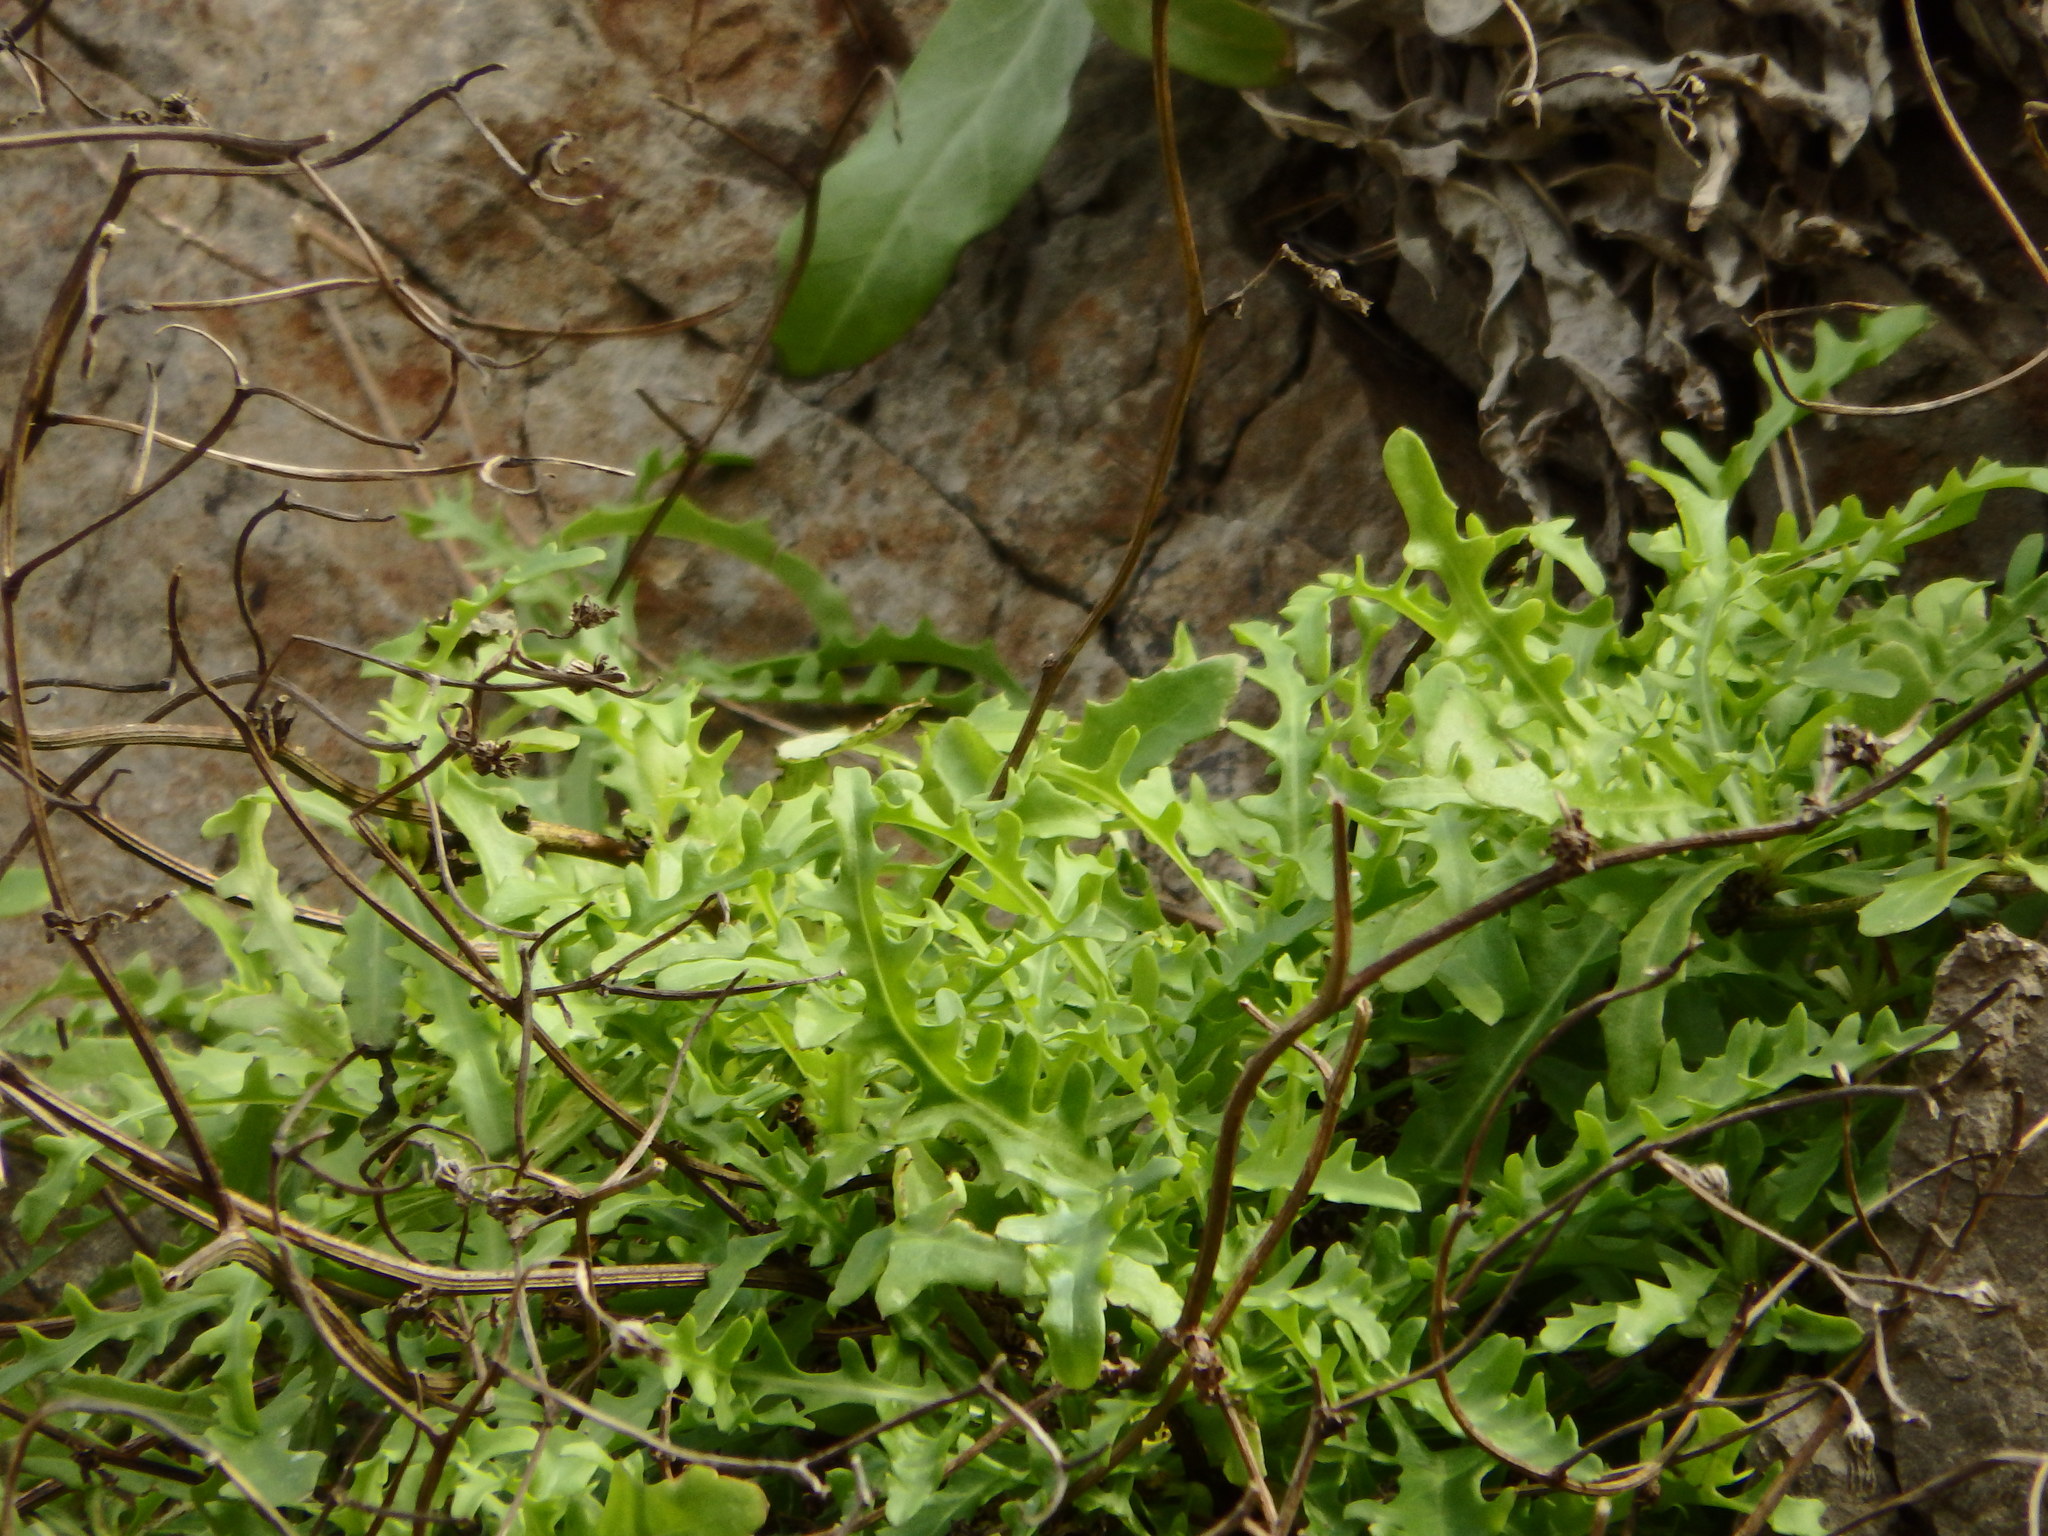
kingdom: Plantae
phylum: Tracheophyta
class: Magnoliopsida
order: Asterales
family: Asteraceae
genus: Tolpis
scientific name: Tolpis succulenta
